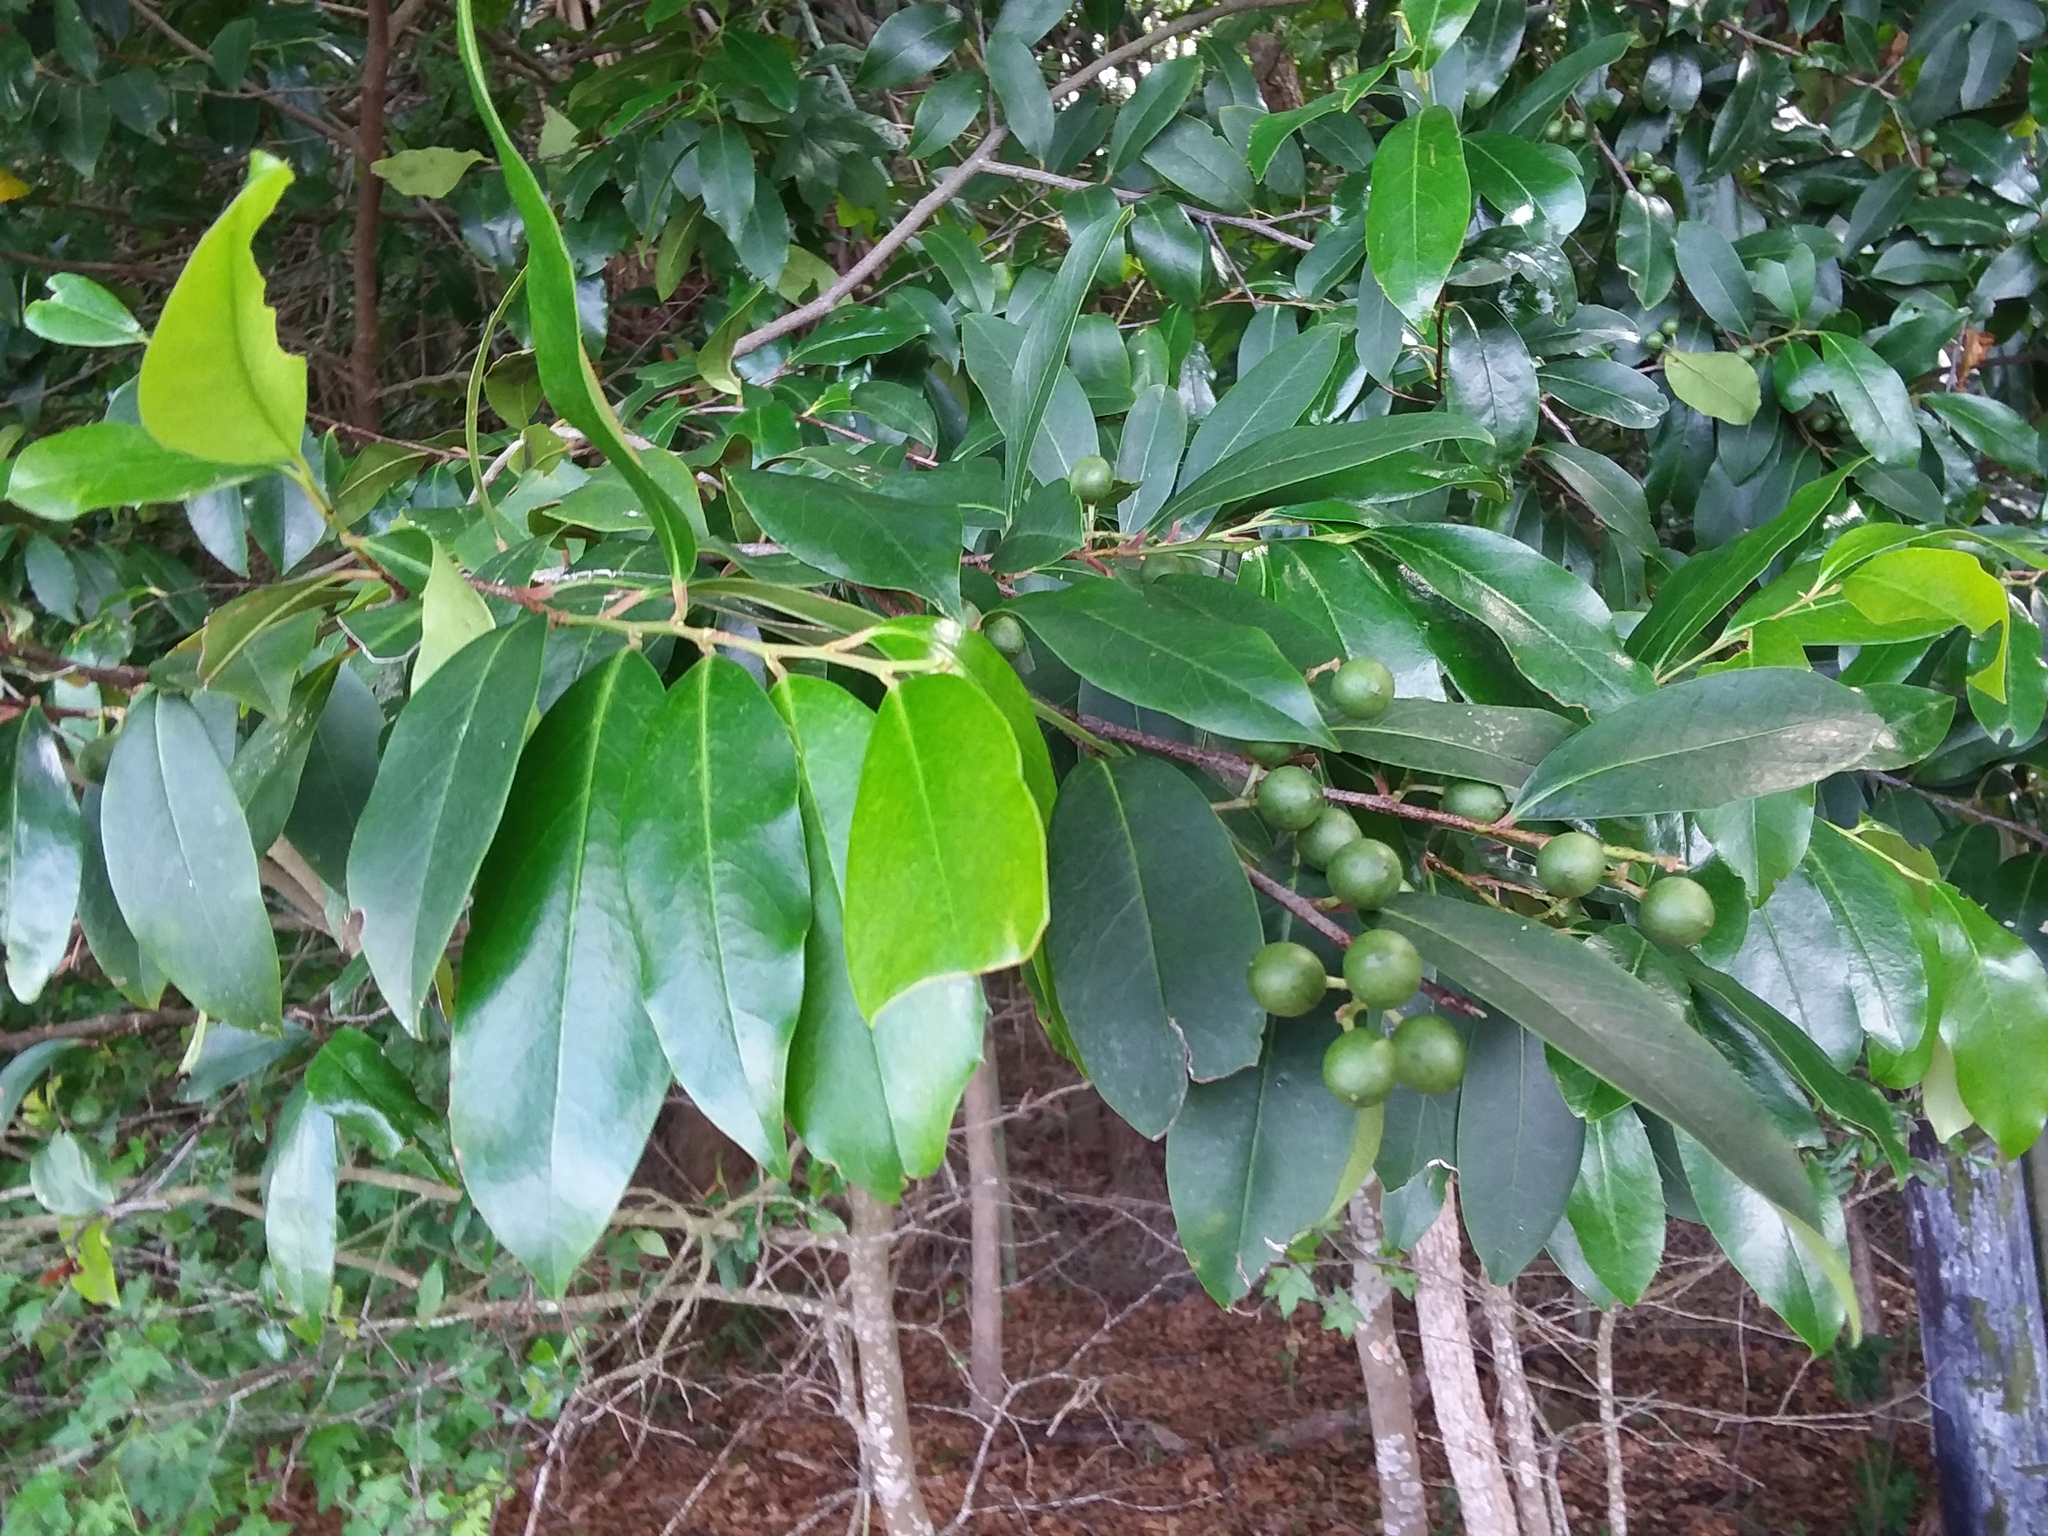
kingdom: Plantae
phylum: Tracheophyta
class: Magnoliopsida
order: Rosales
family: Rosaceae
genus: Prunus
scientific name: Prunus caroliniana
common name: Carolina laurel cherry
